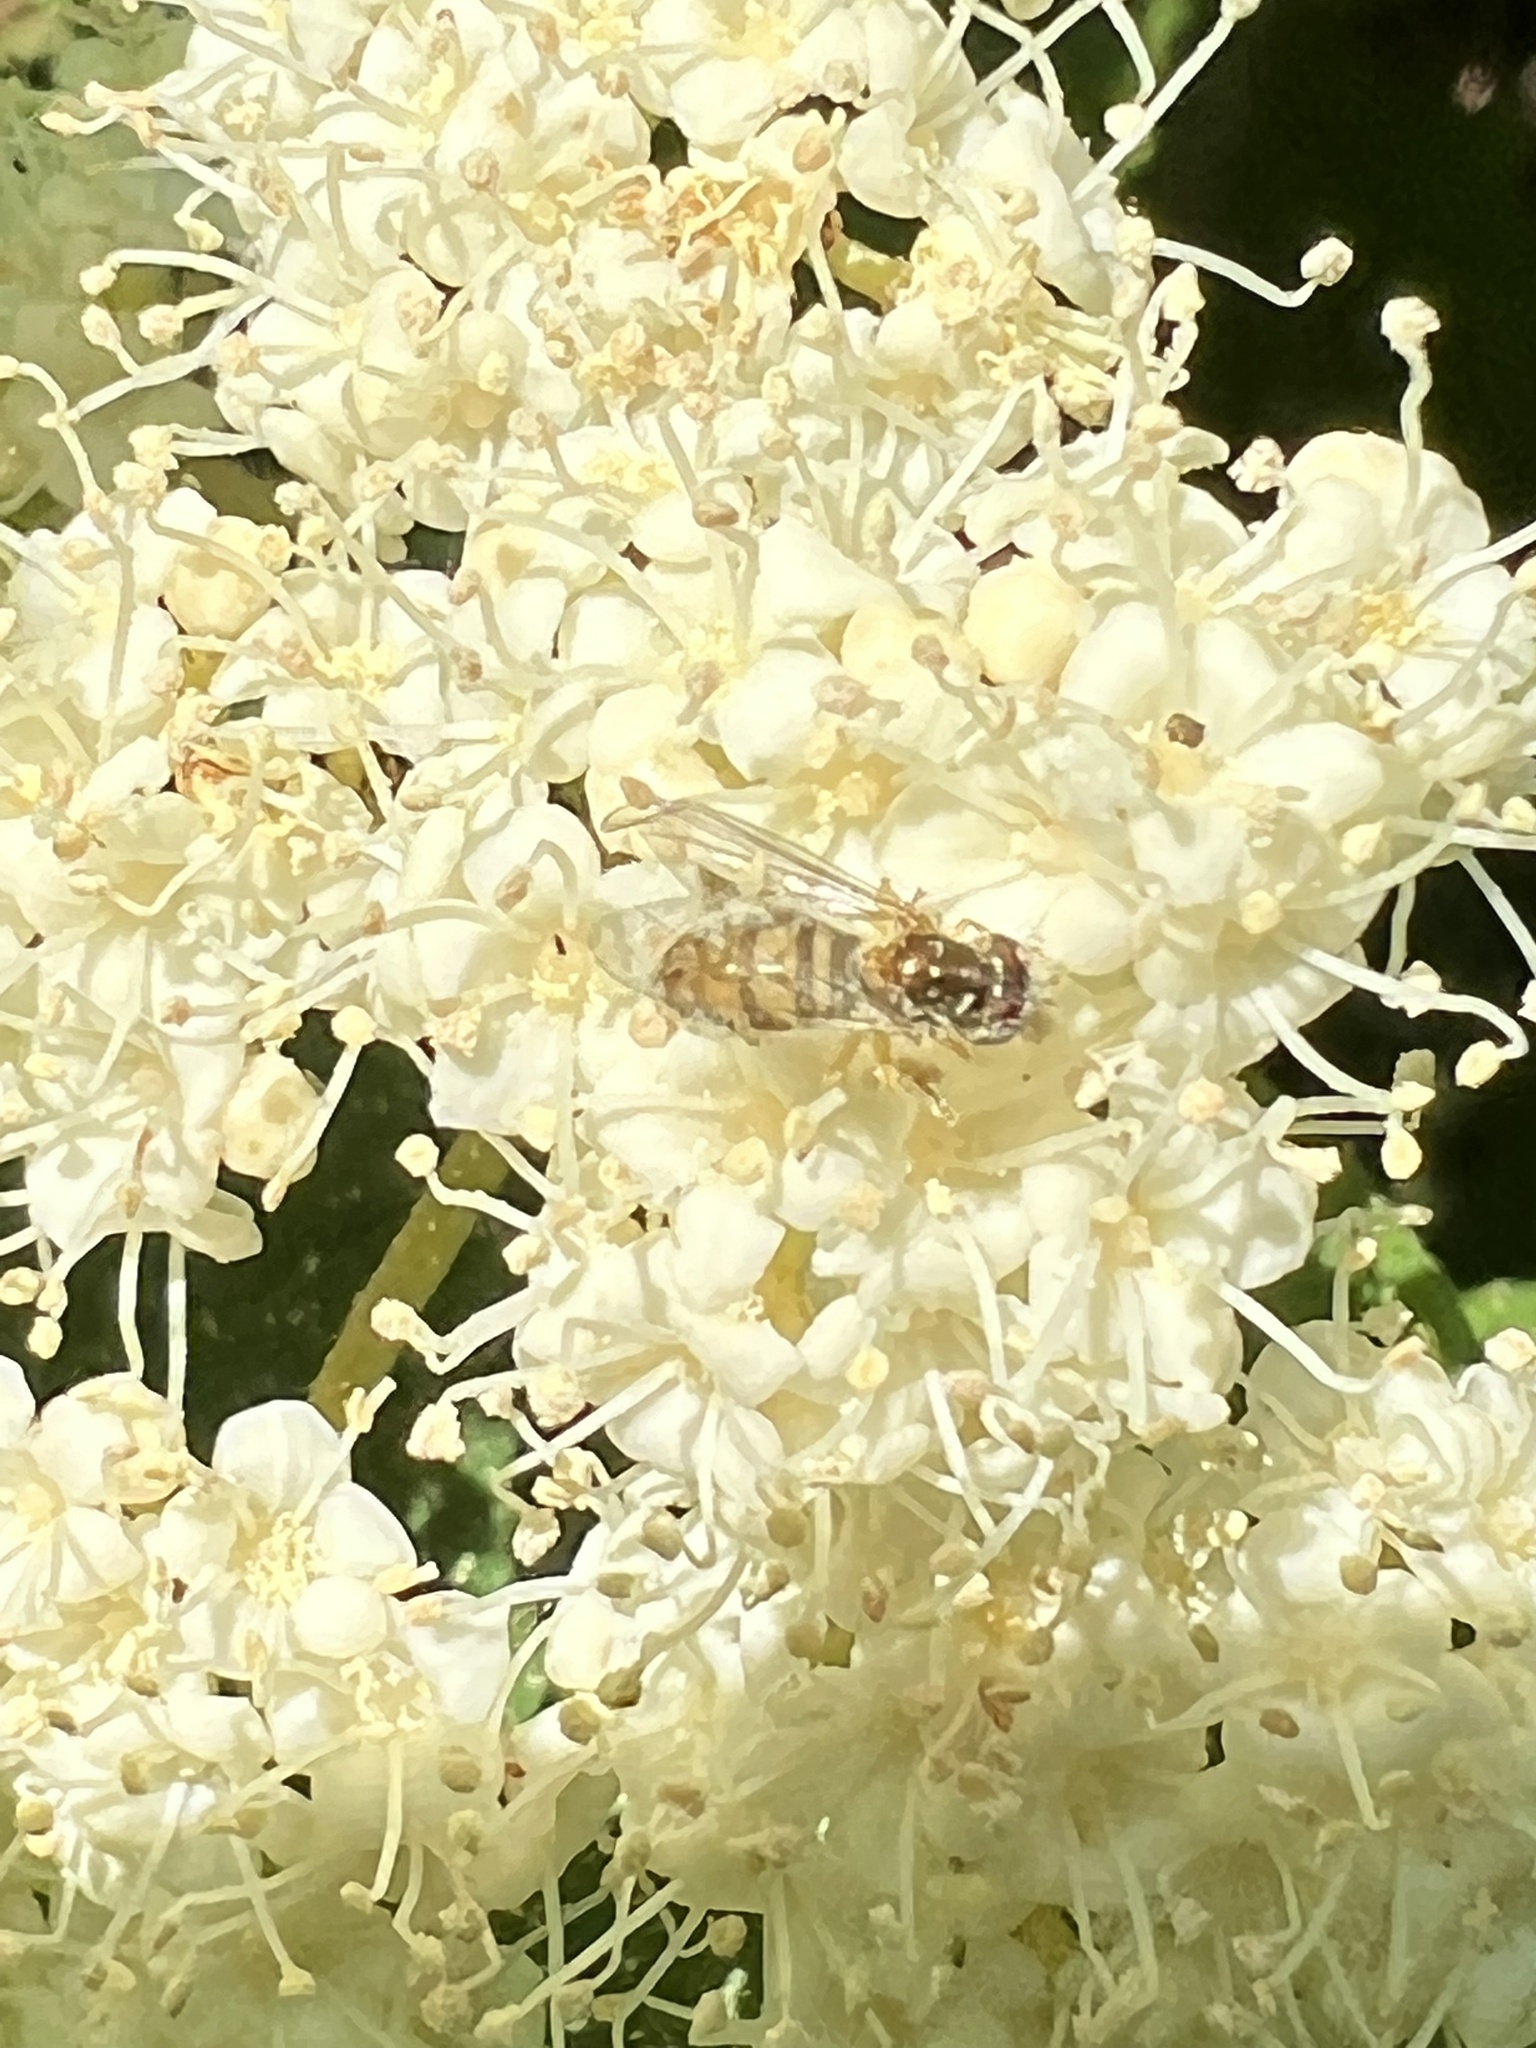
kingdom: Animalia
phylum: Arthropoda
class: Insecta
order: Diptera
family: Syrphidae
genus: Toxomerus
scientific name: Toxomerus marginatus
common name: Syrphid fly
